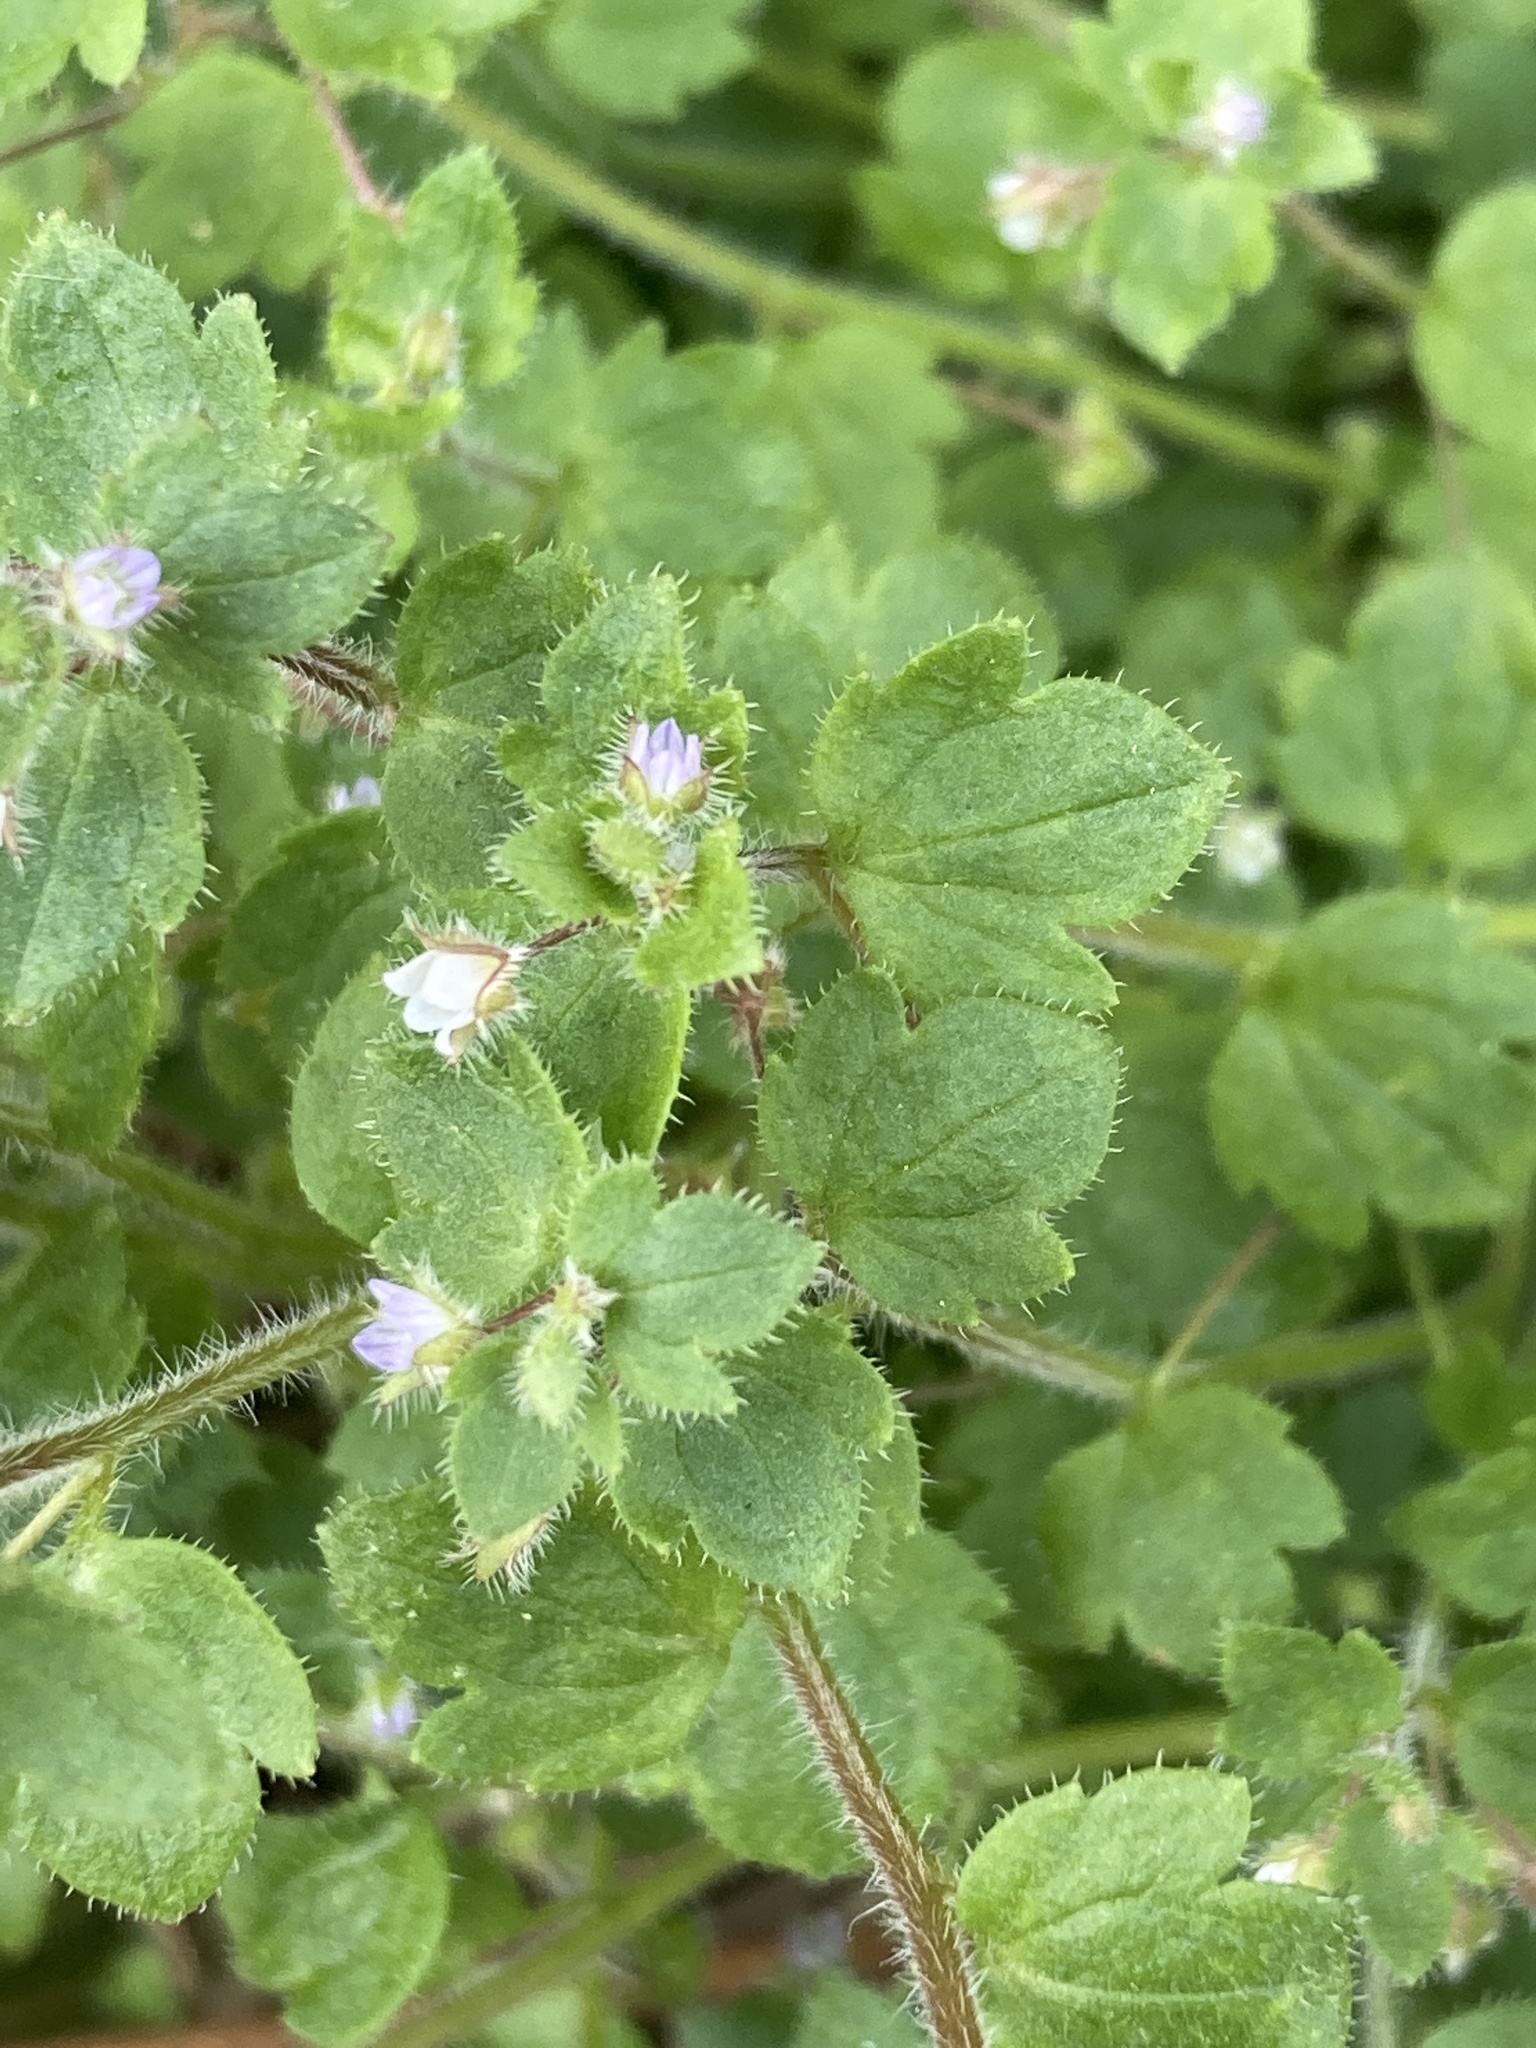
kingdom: Plantae
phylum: Tracheophyta
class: Magnoliopsida
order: Lamiales
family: Plantaginaceae
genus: Veronica
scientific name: Veronica hederifolia
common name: Ivy-leaved speedwell
